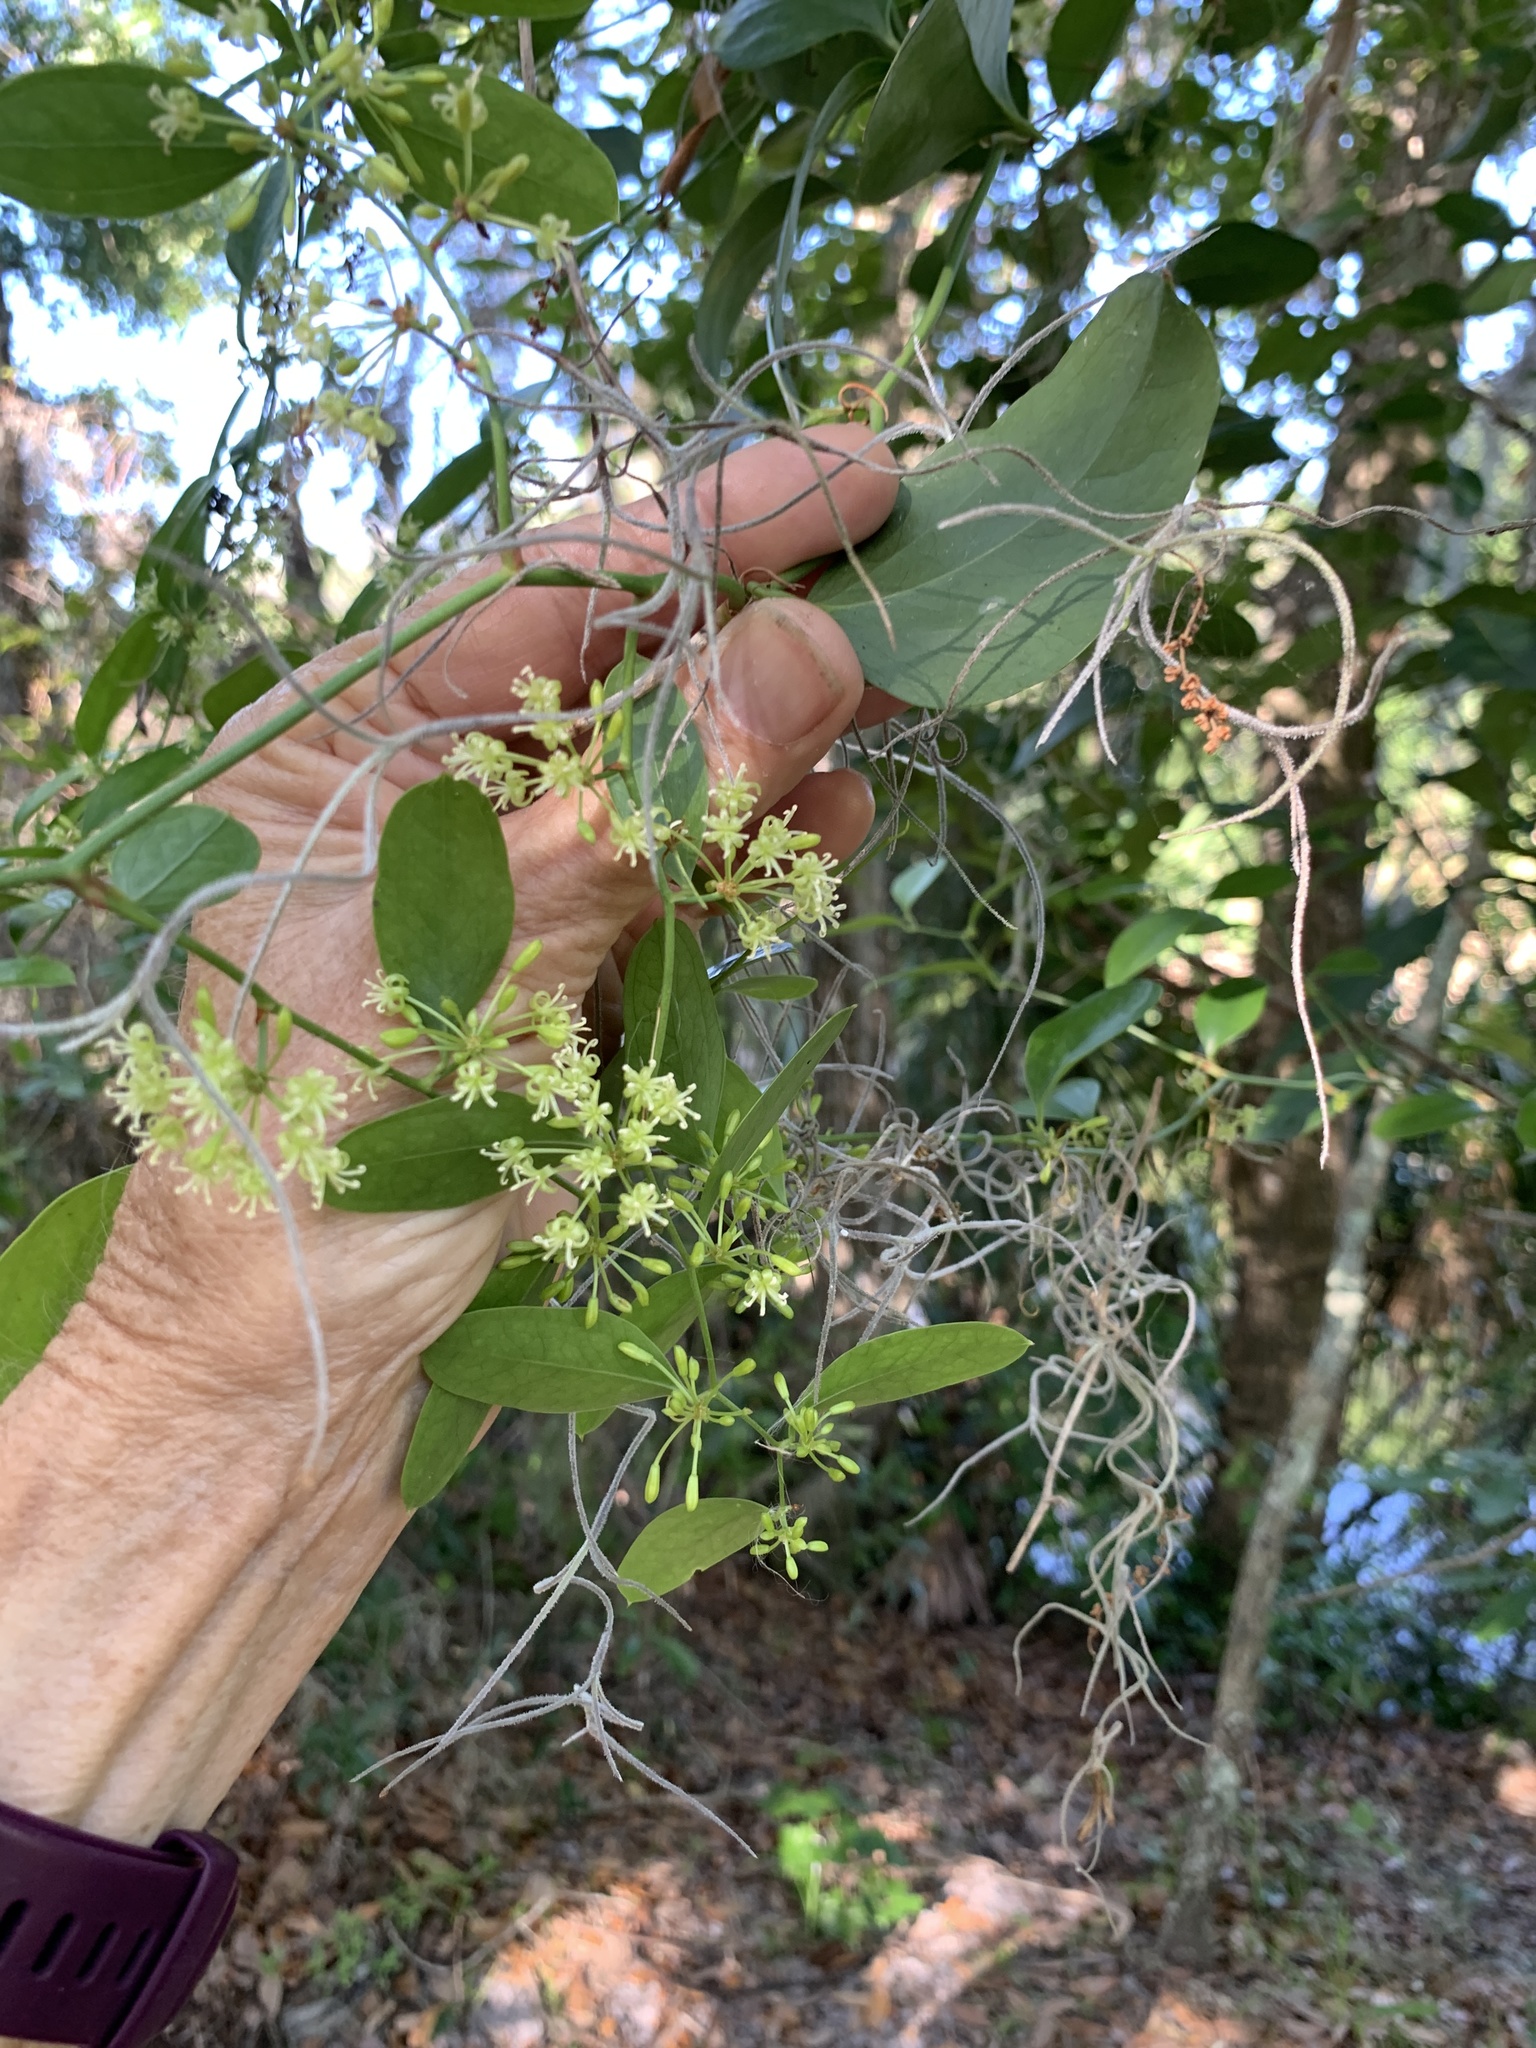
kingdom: Plantae
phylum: Tracheophyta
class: Liliopsida
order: Liliales
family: Smilacaceae
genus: Smilax
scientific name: Smilax auriculata
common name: Wild bamboo
